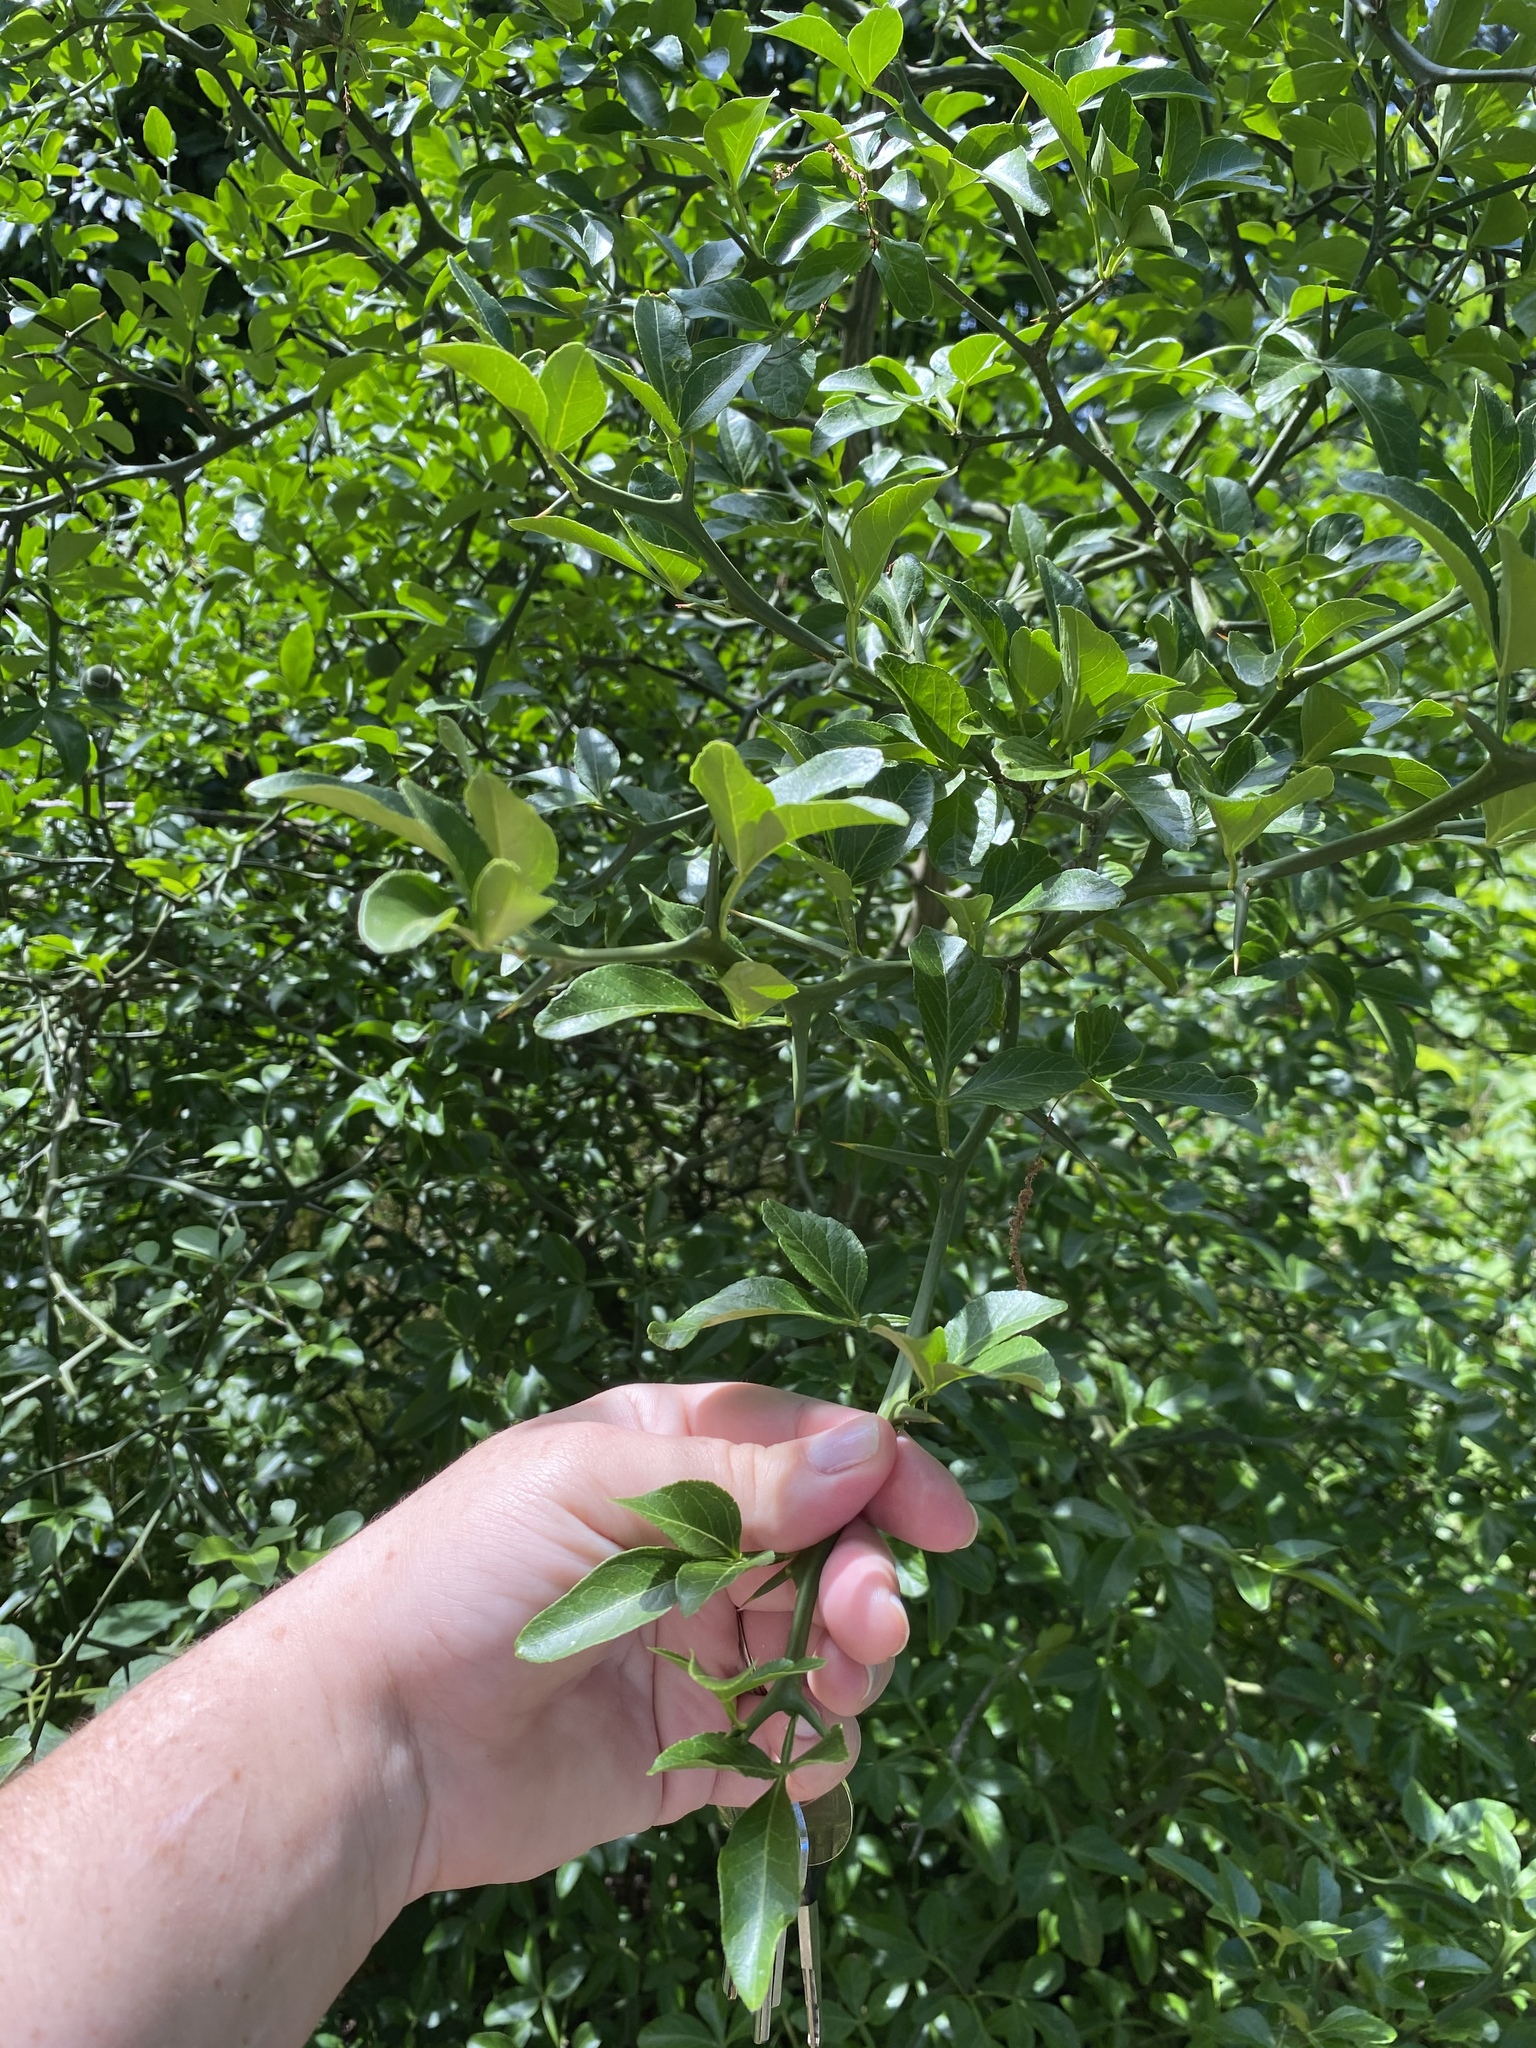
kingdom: Plantae
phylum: Tracheophyta
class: Magnoliopsida
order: Sapindales
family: Rutaceae
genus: Citrus
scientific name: Citrus trifoliata
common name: Japanese bitter-orange
